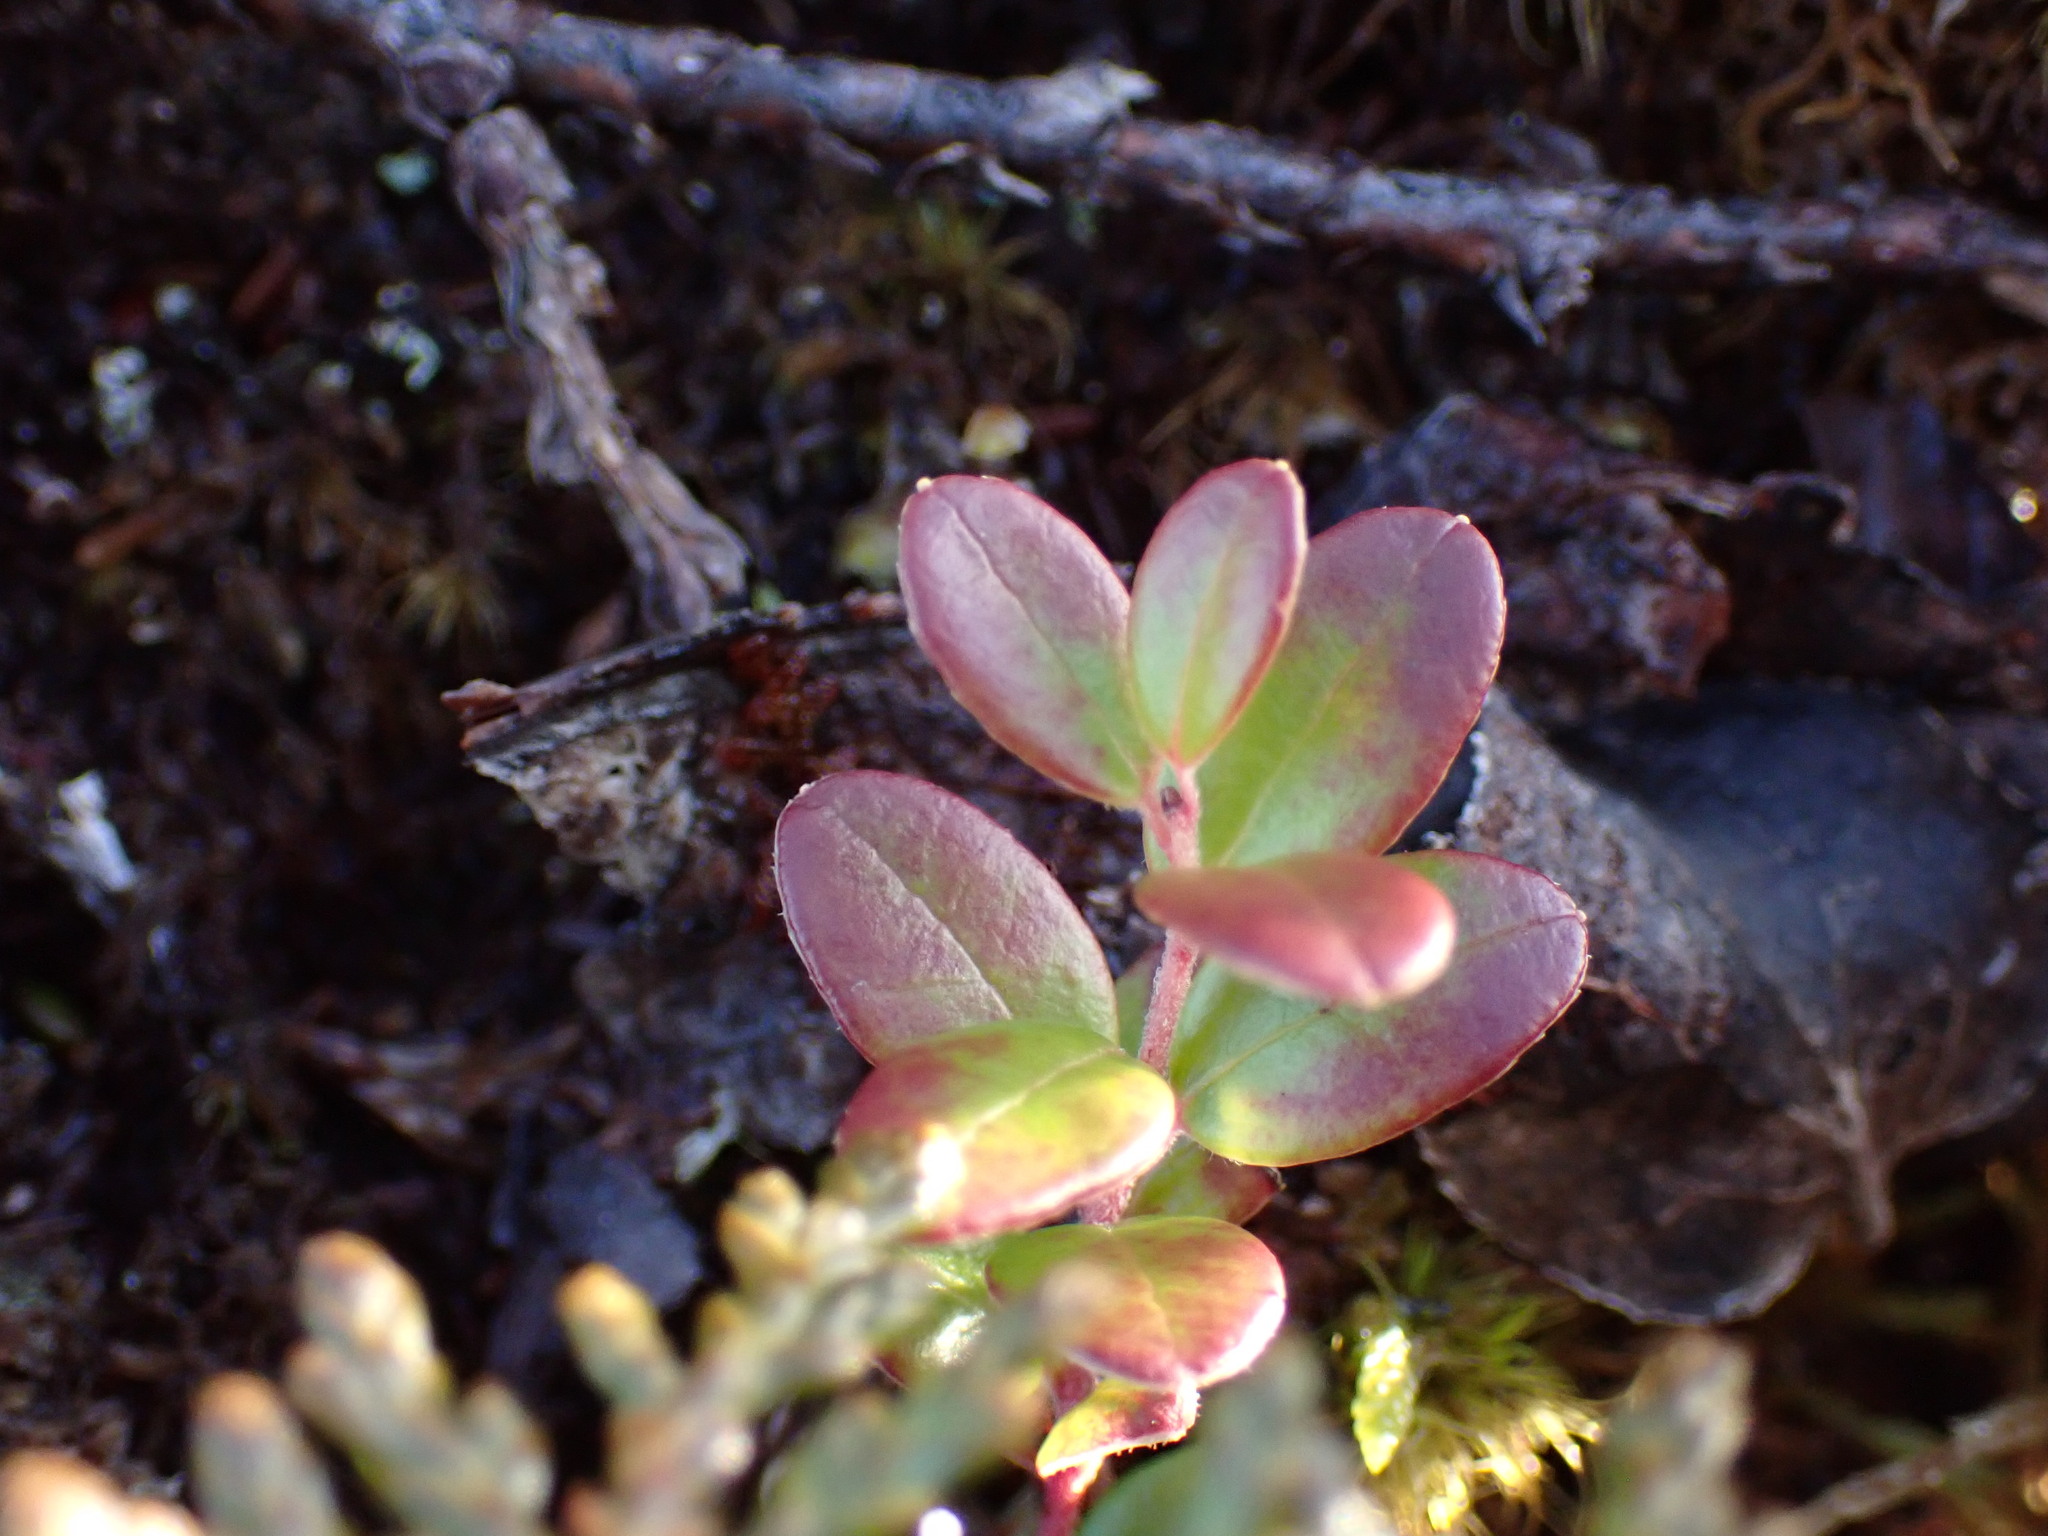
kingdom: Plantae
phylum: Tracheophyta
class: Magnoliopsida
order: Ericales
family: Ericaceae
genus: Vaccinium
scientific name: Vaccinium vitis-idaea
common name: Cowberry
